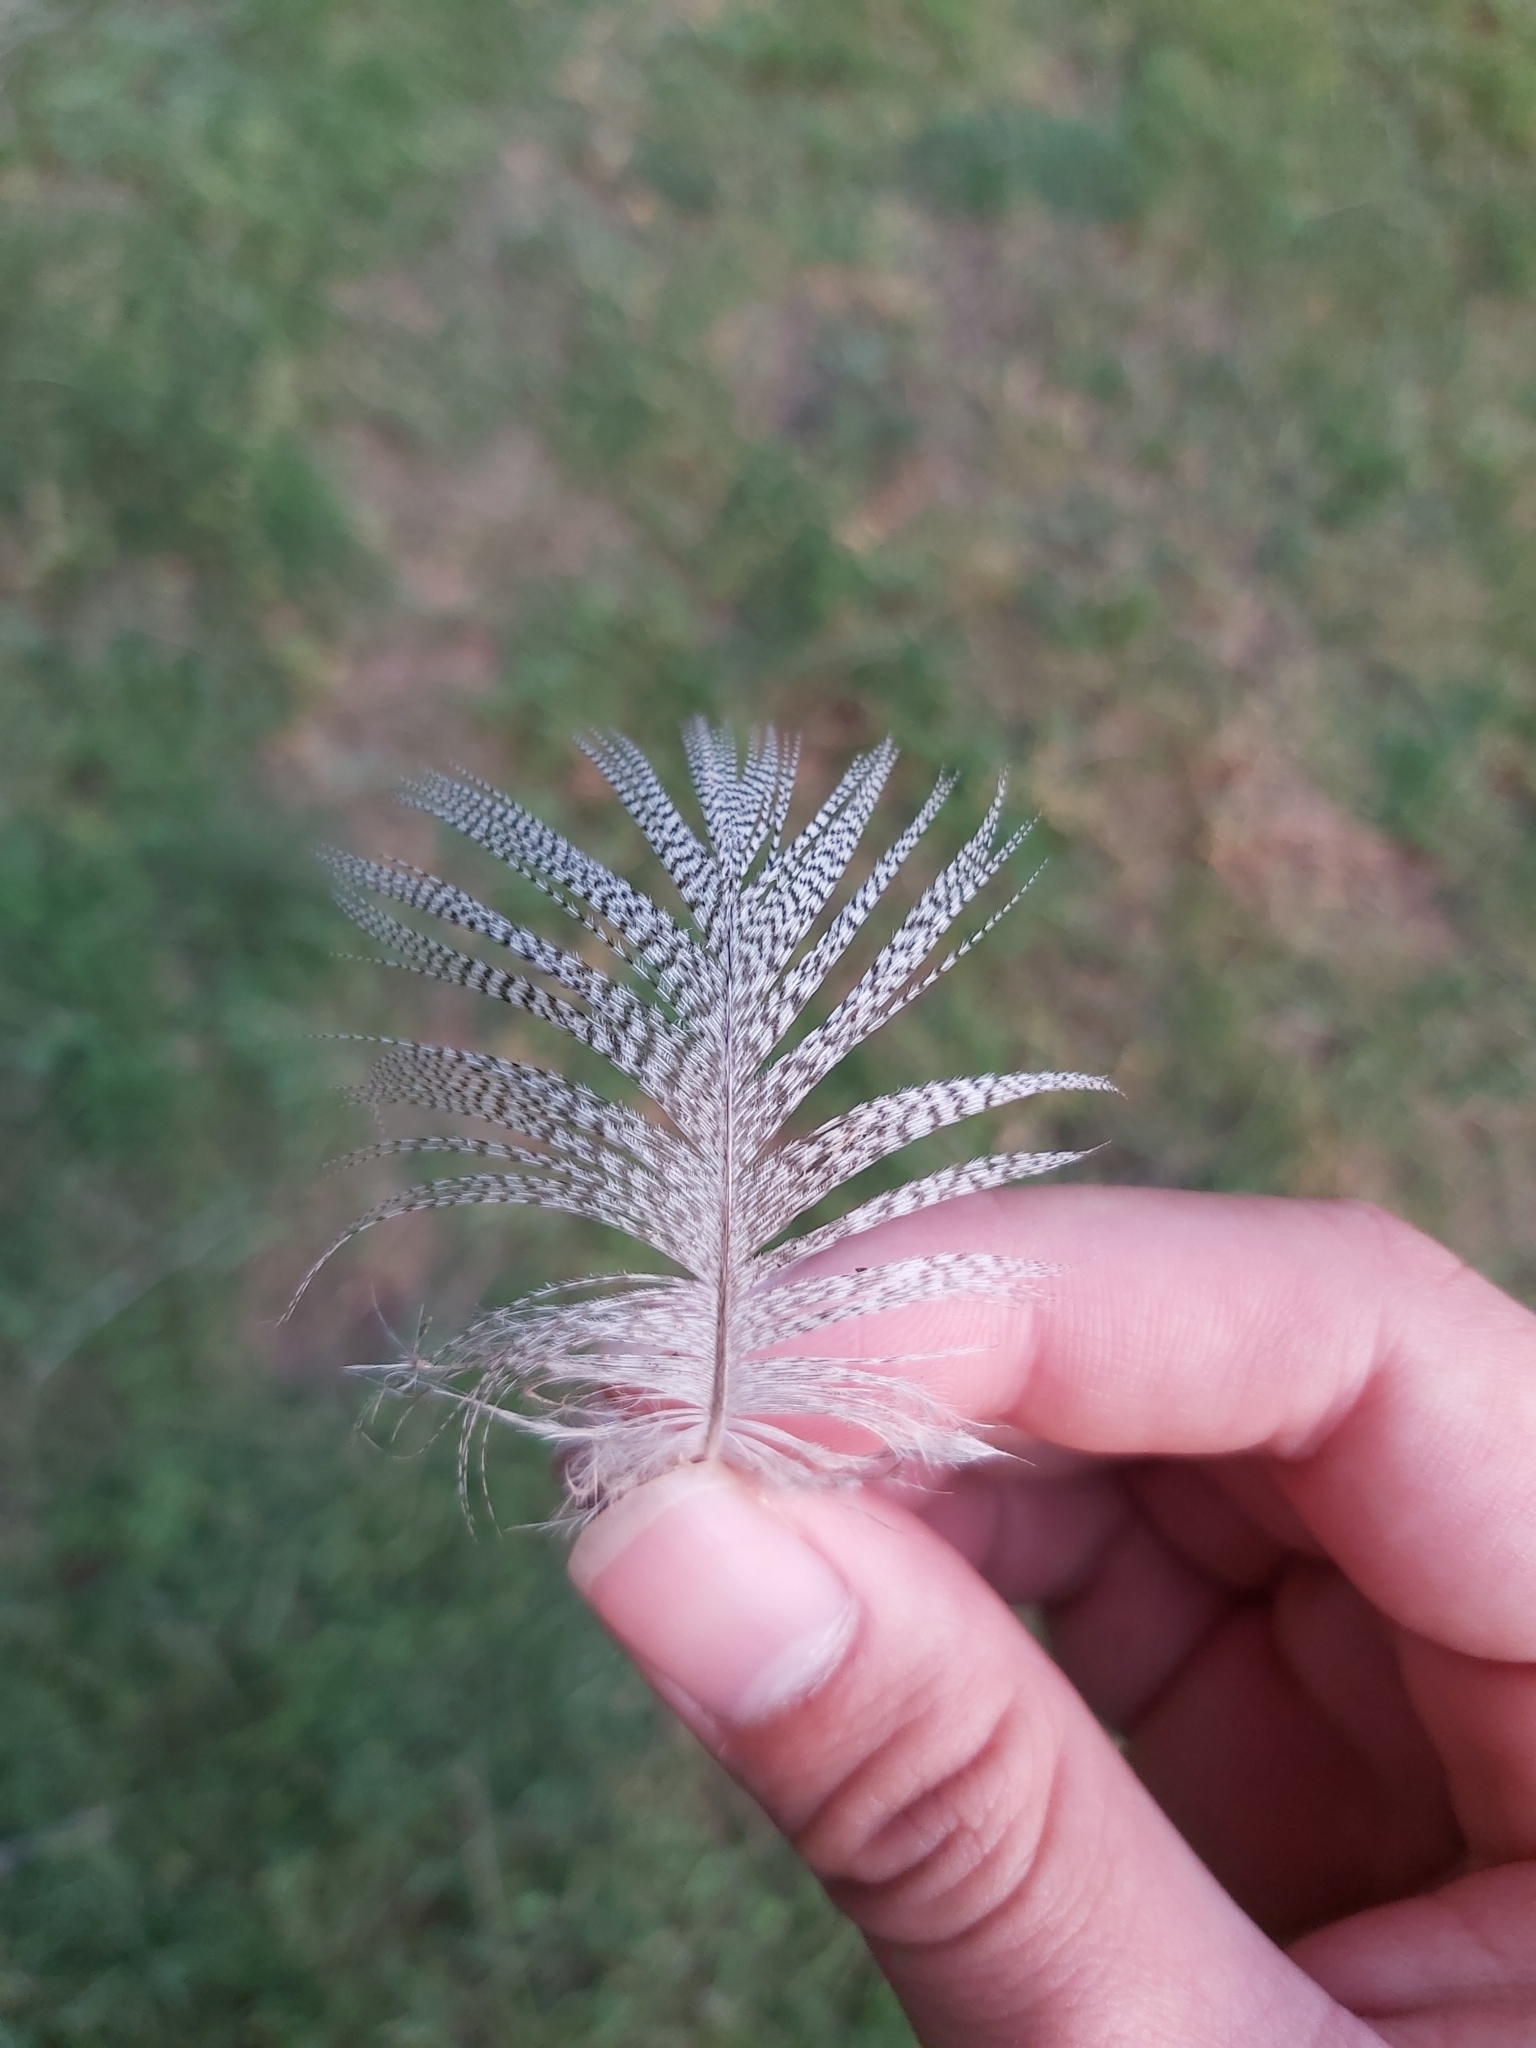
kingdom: Animalia
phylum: Chordata
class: Aves
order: Anseriformes
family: Anatidae
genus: Chenonetta
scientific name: Chenonetta jubata
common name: Maned duck
